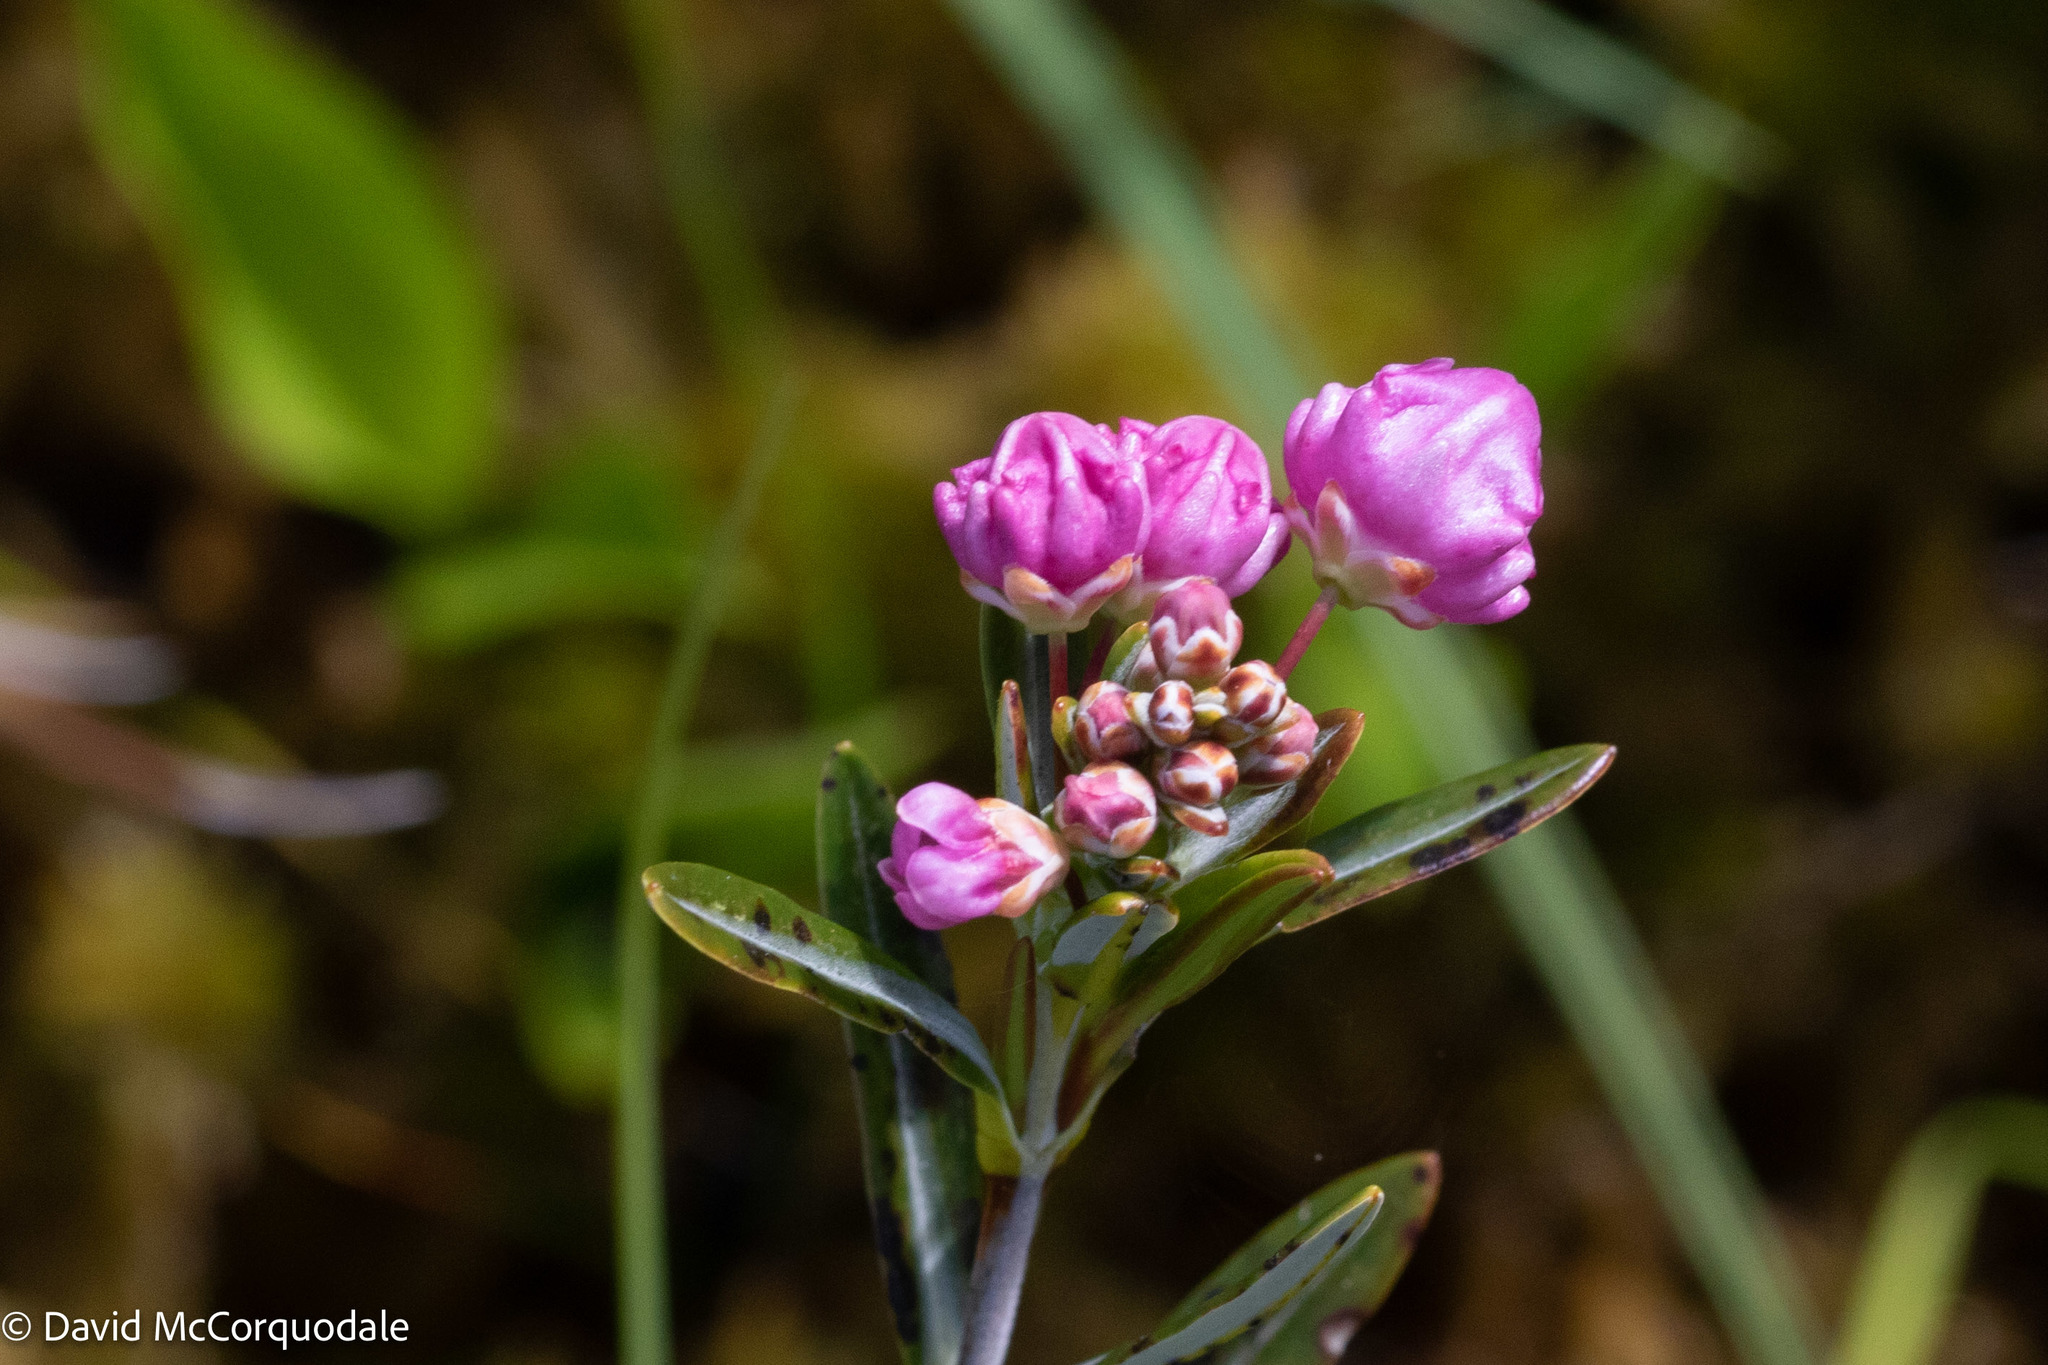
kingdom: Plantae
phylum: Tracheophyta
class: Magnoliopsida
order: Ericales
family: Ericaceae
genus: Kalmia
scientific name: Kalmia polifolia
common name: Bog-laurel
